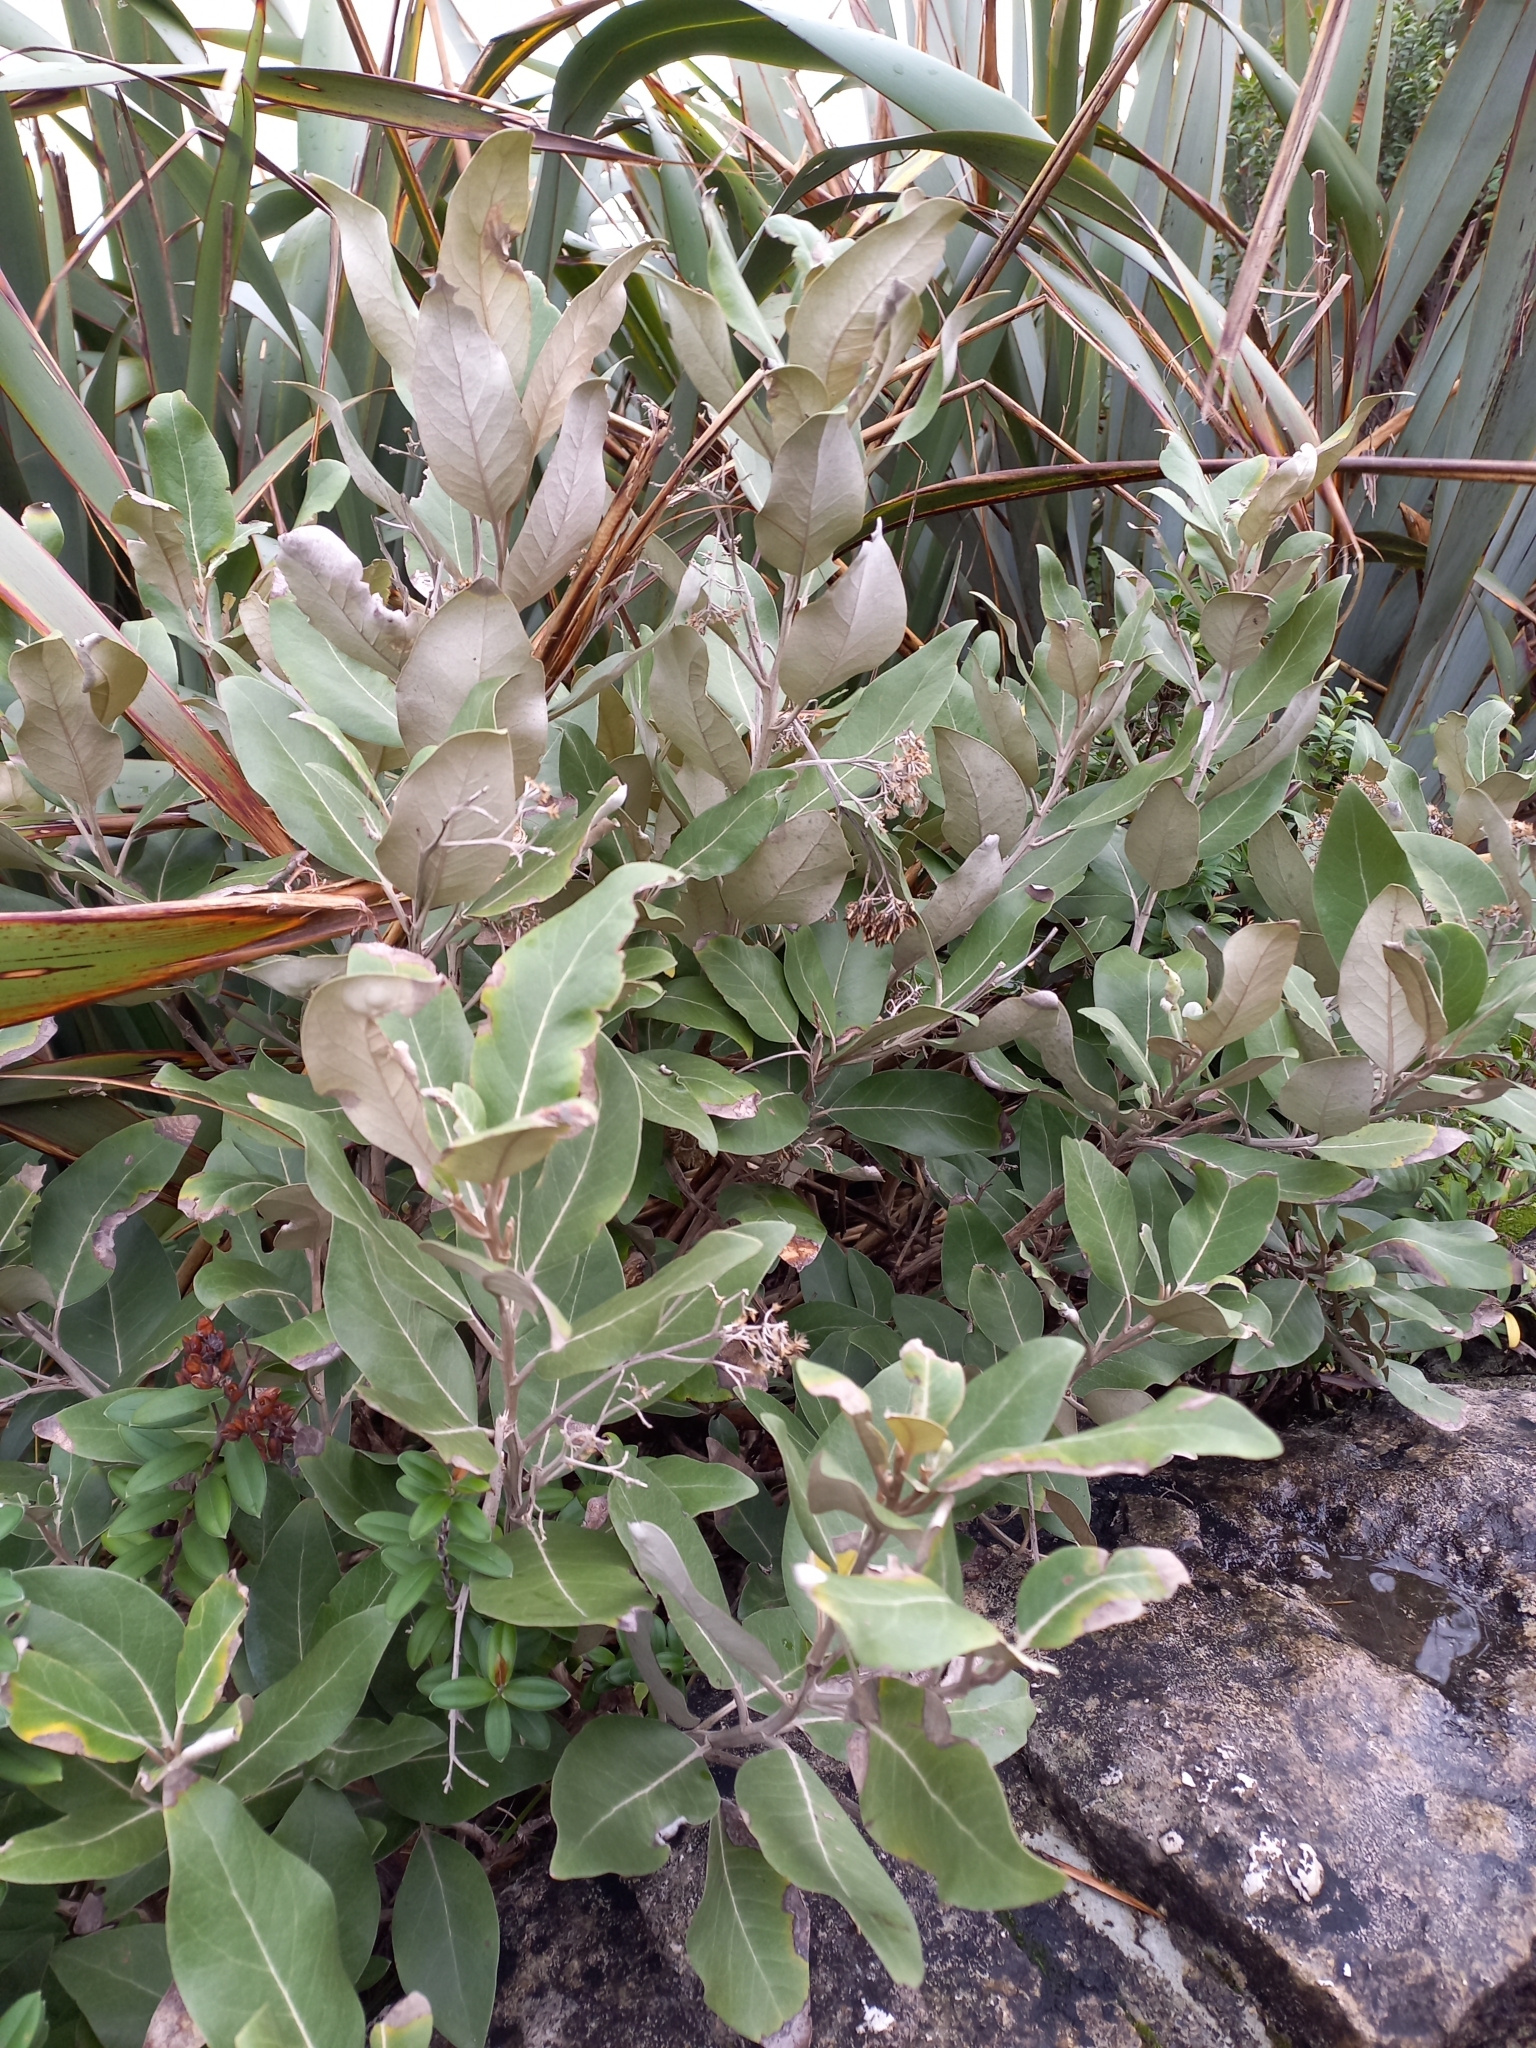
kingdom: Plantae
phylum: Tracheophyta
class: Magnoliopsida
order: Asterales
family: Asteraceae
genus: Olearia
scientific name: Olearia avicenniifolia
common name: Mangrove-leaf daisybush
